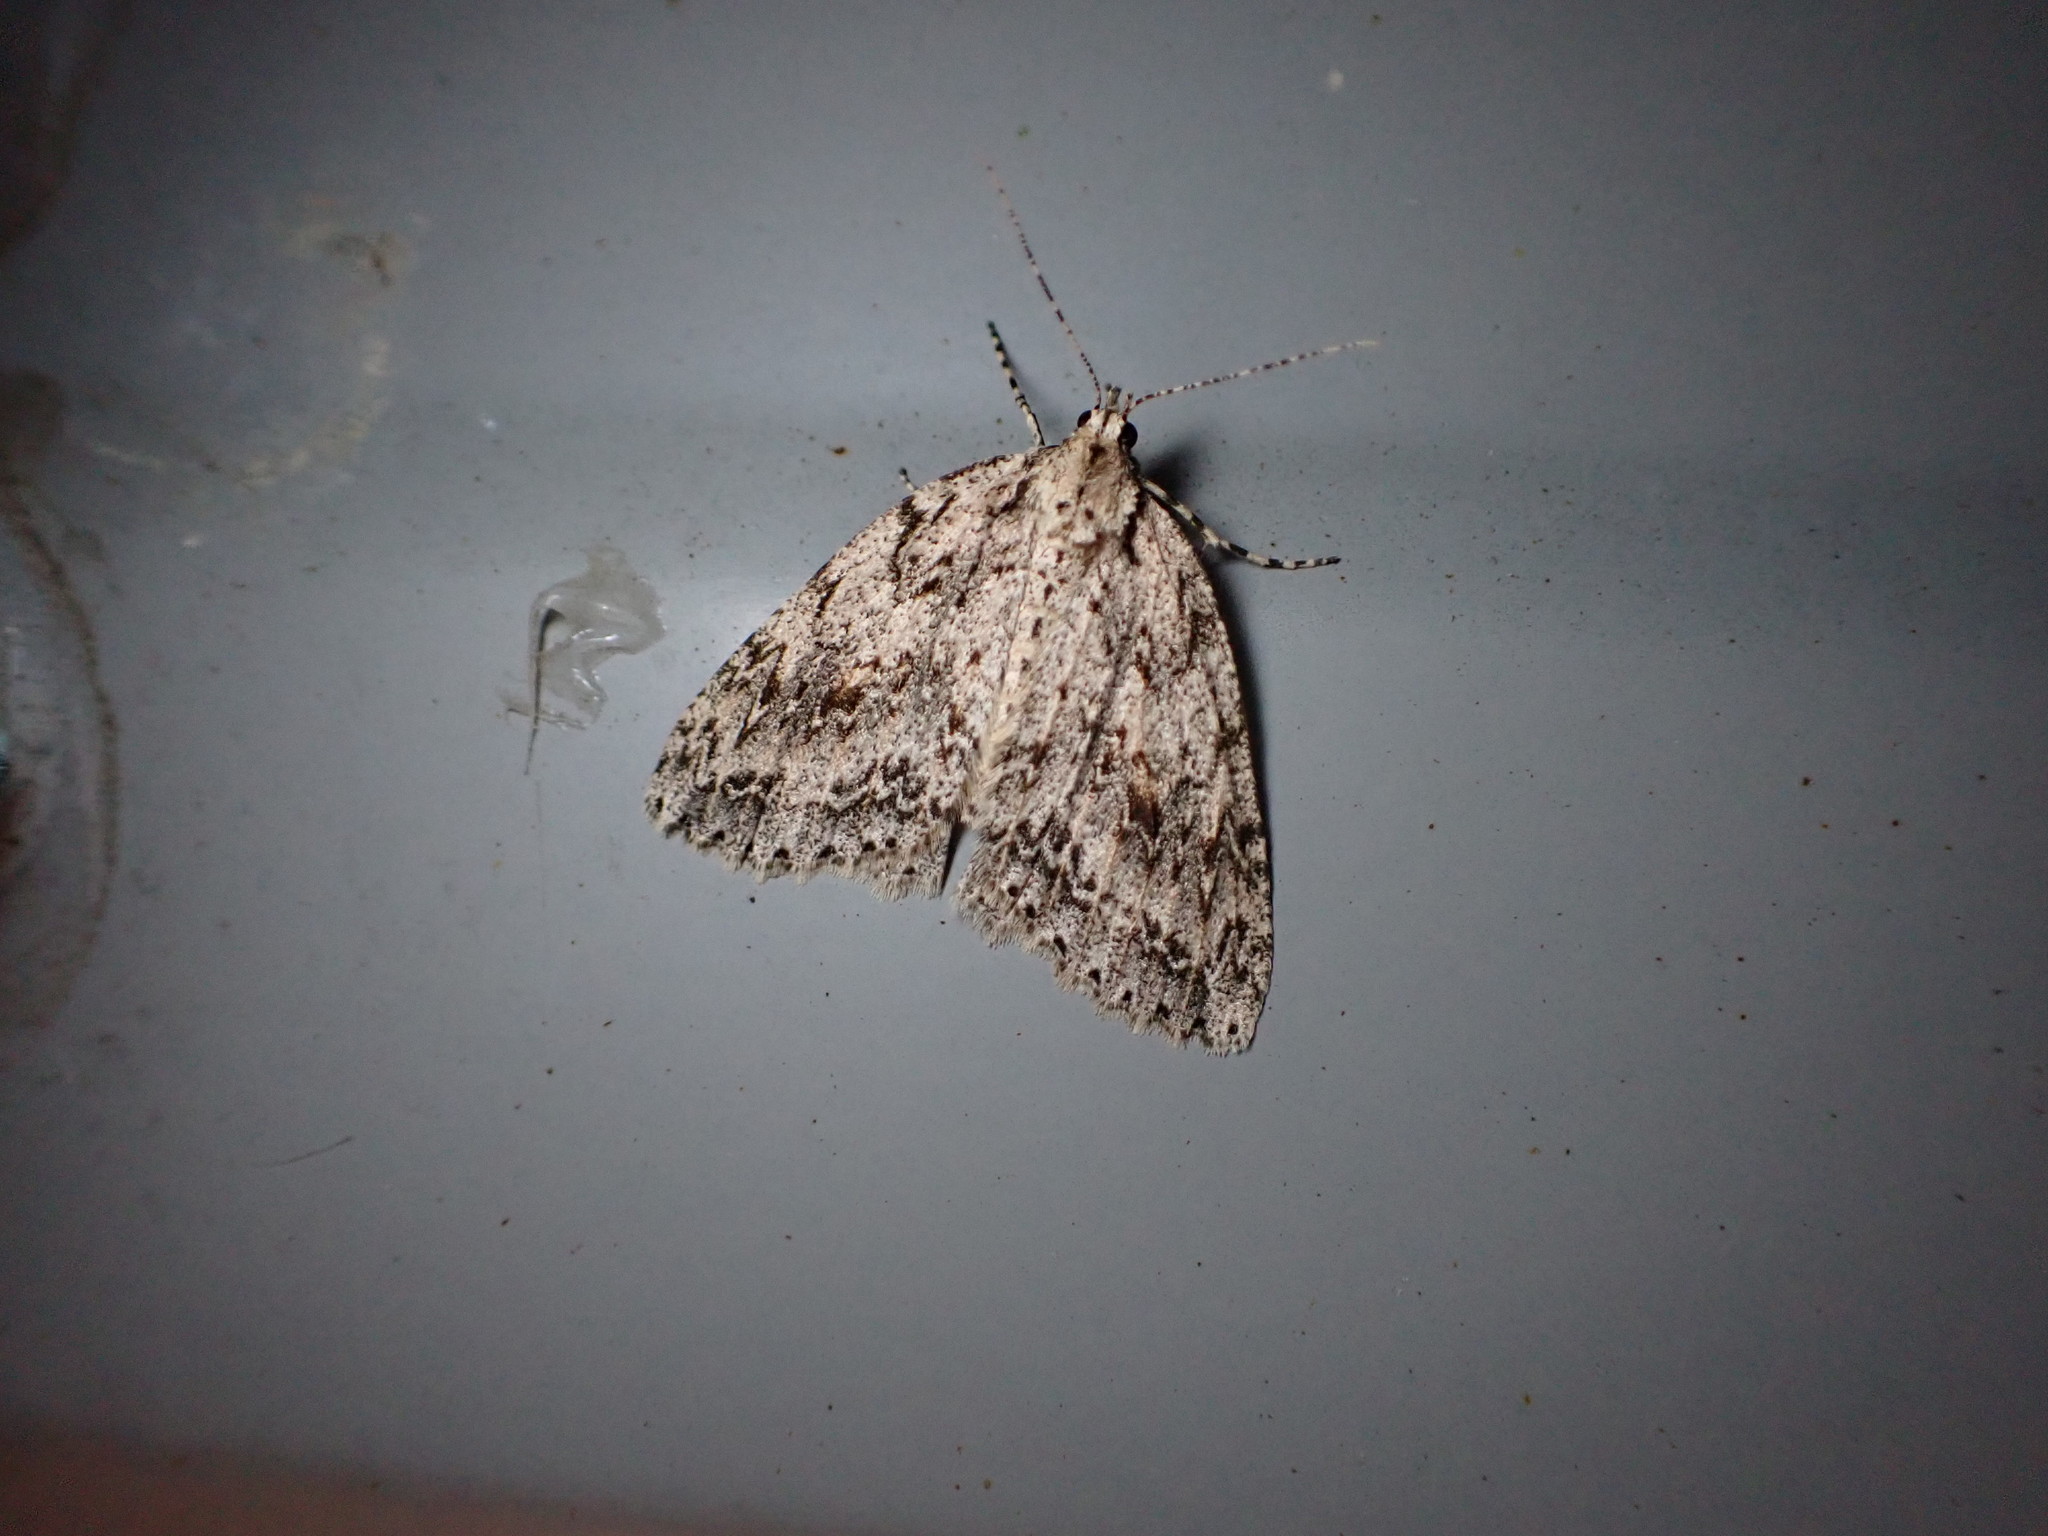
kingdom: Animalia
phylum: Arthropoda
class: Insecta
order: Lepidoptera
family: Geometridae
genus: Pseudocoremia
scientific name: Pseudocoremia rudisata
